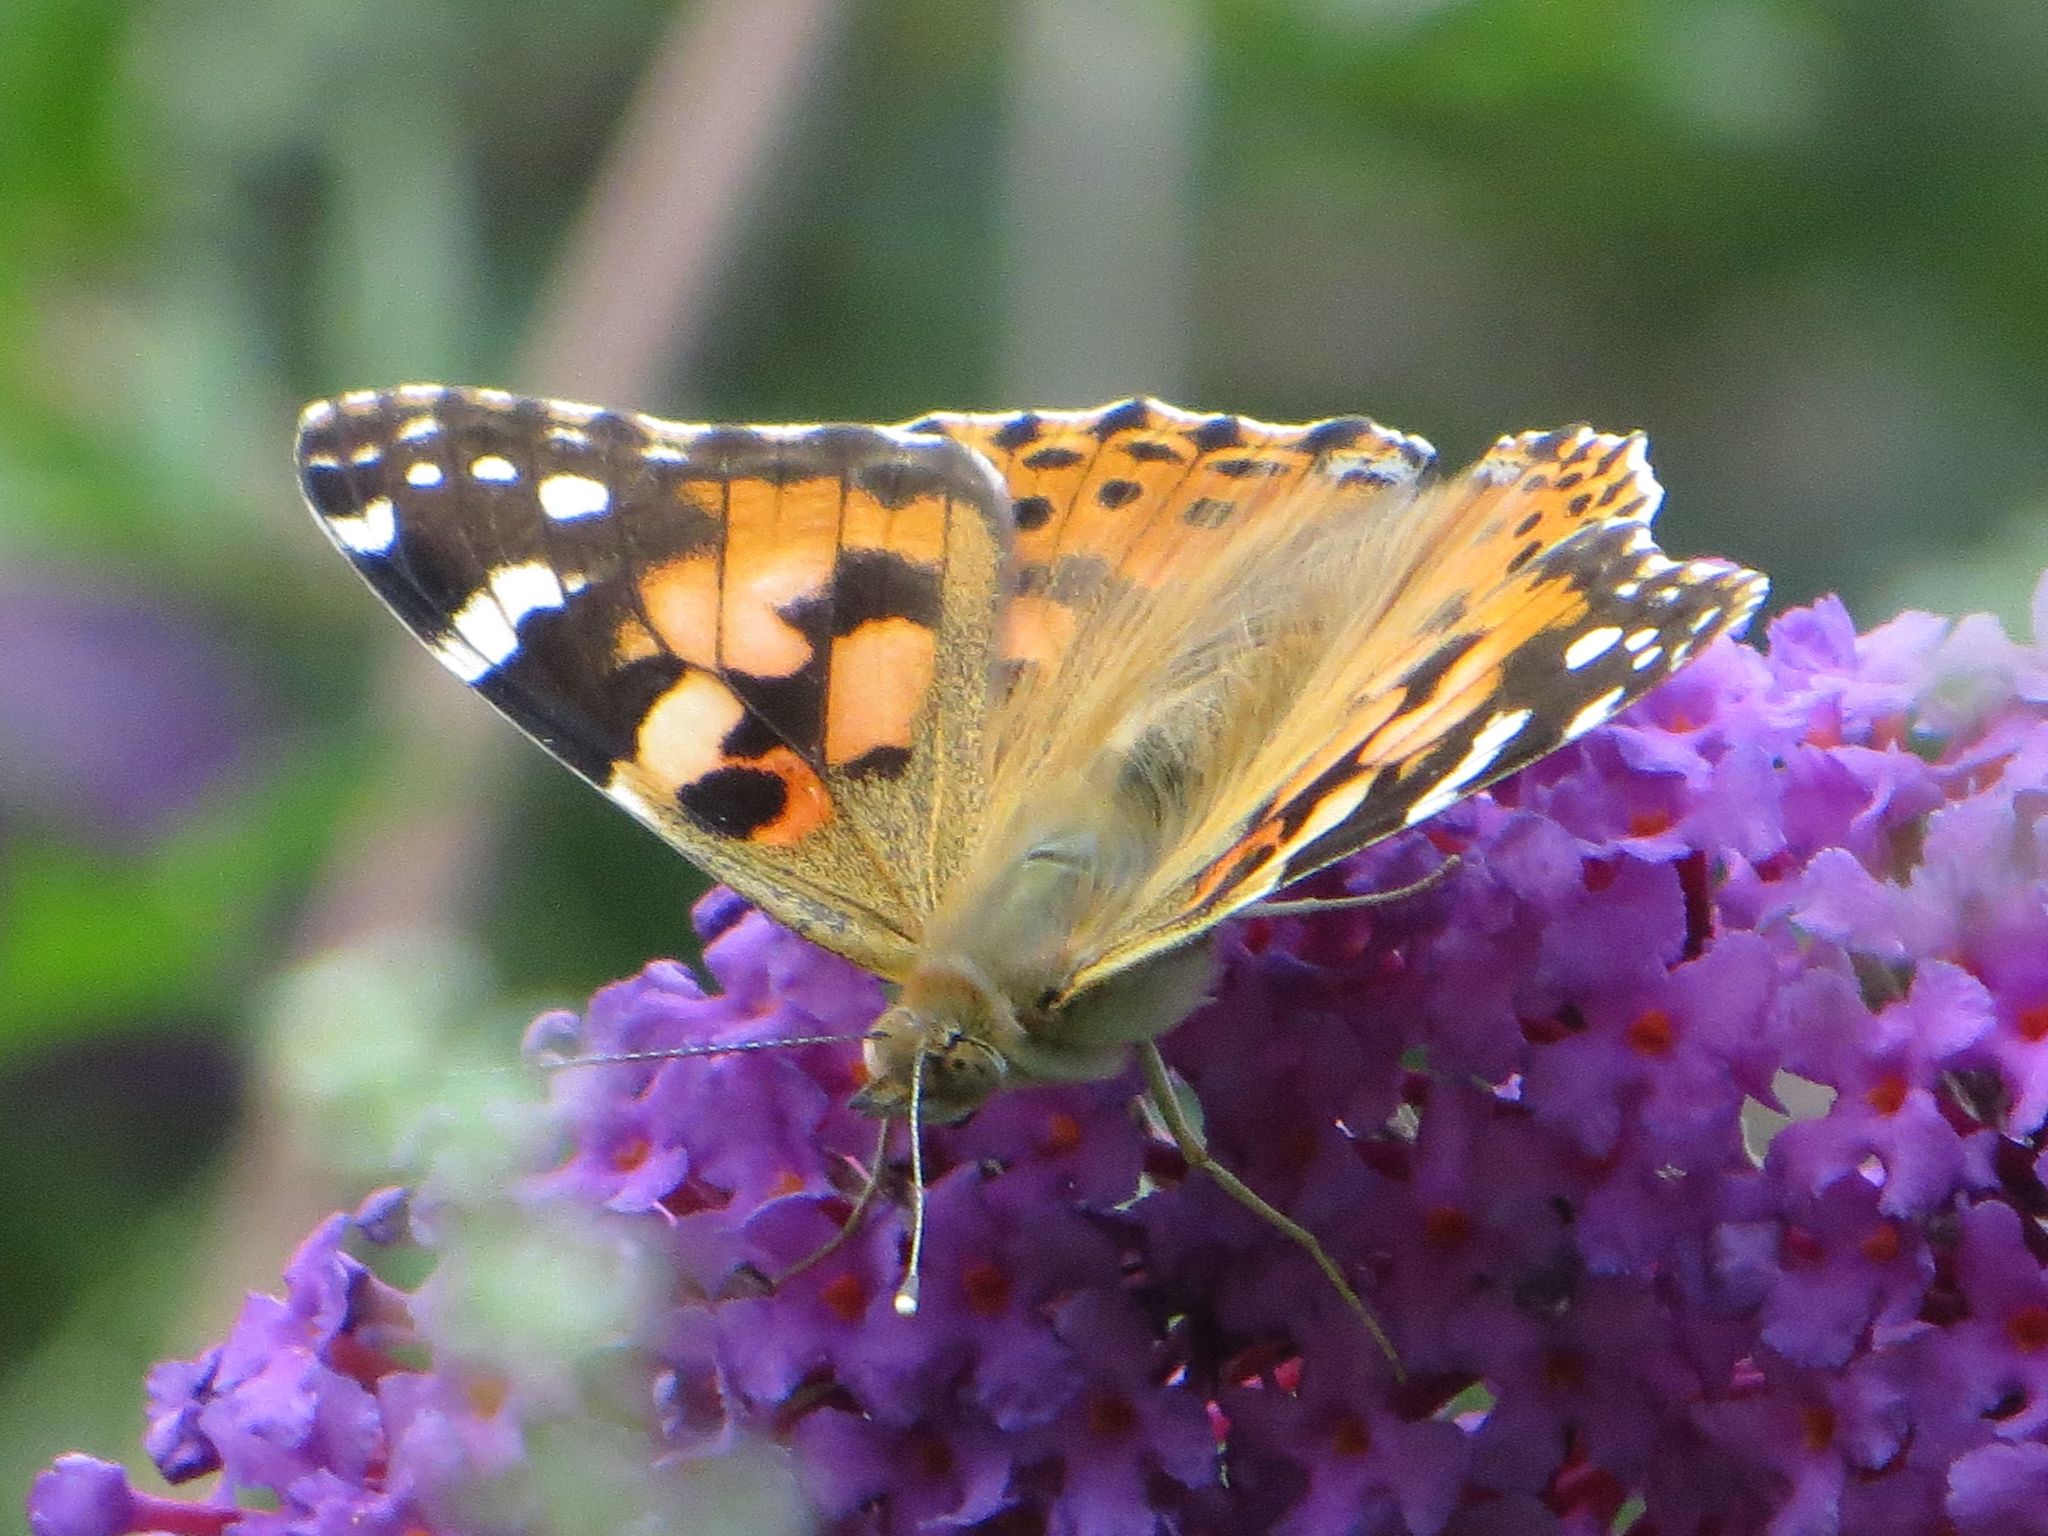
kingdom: Animalia
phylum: Arthropoda
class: Insecta
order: Lepidoptera
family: Nymphalidae
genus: Vanessa
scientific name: Vanessa cardui
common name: Painted lady
